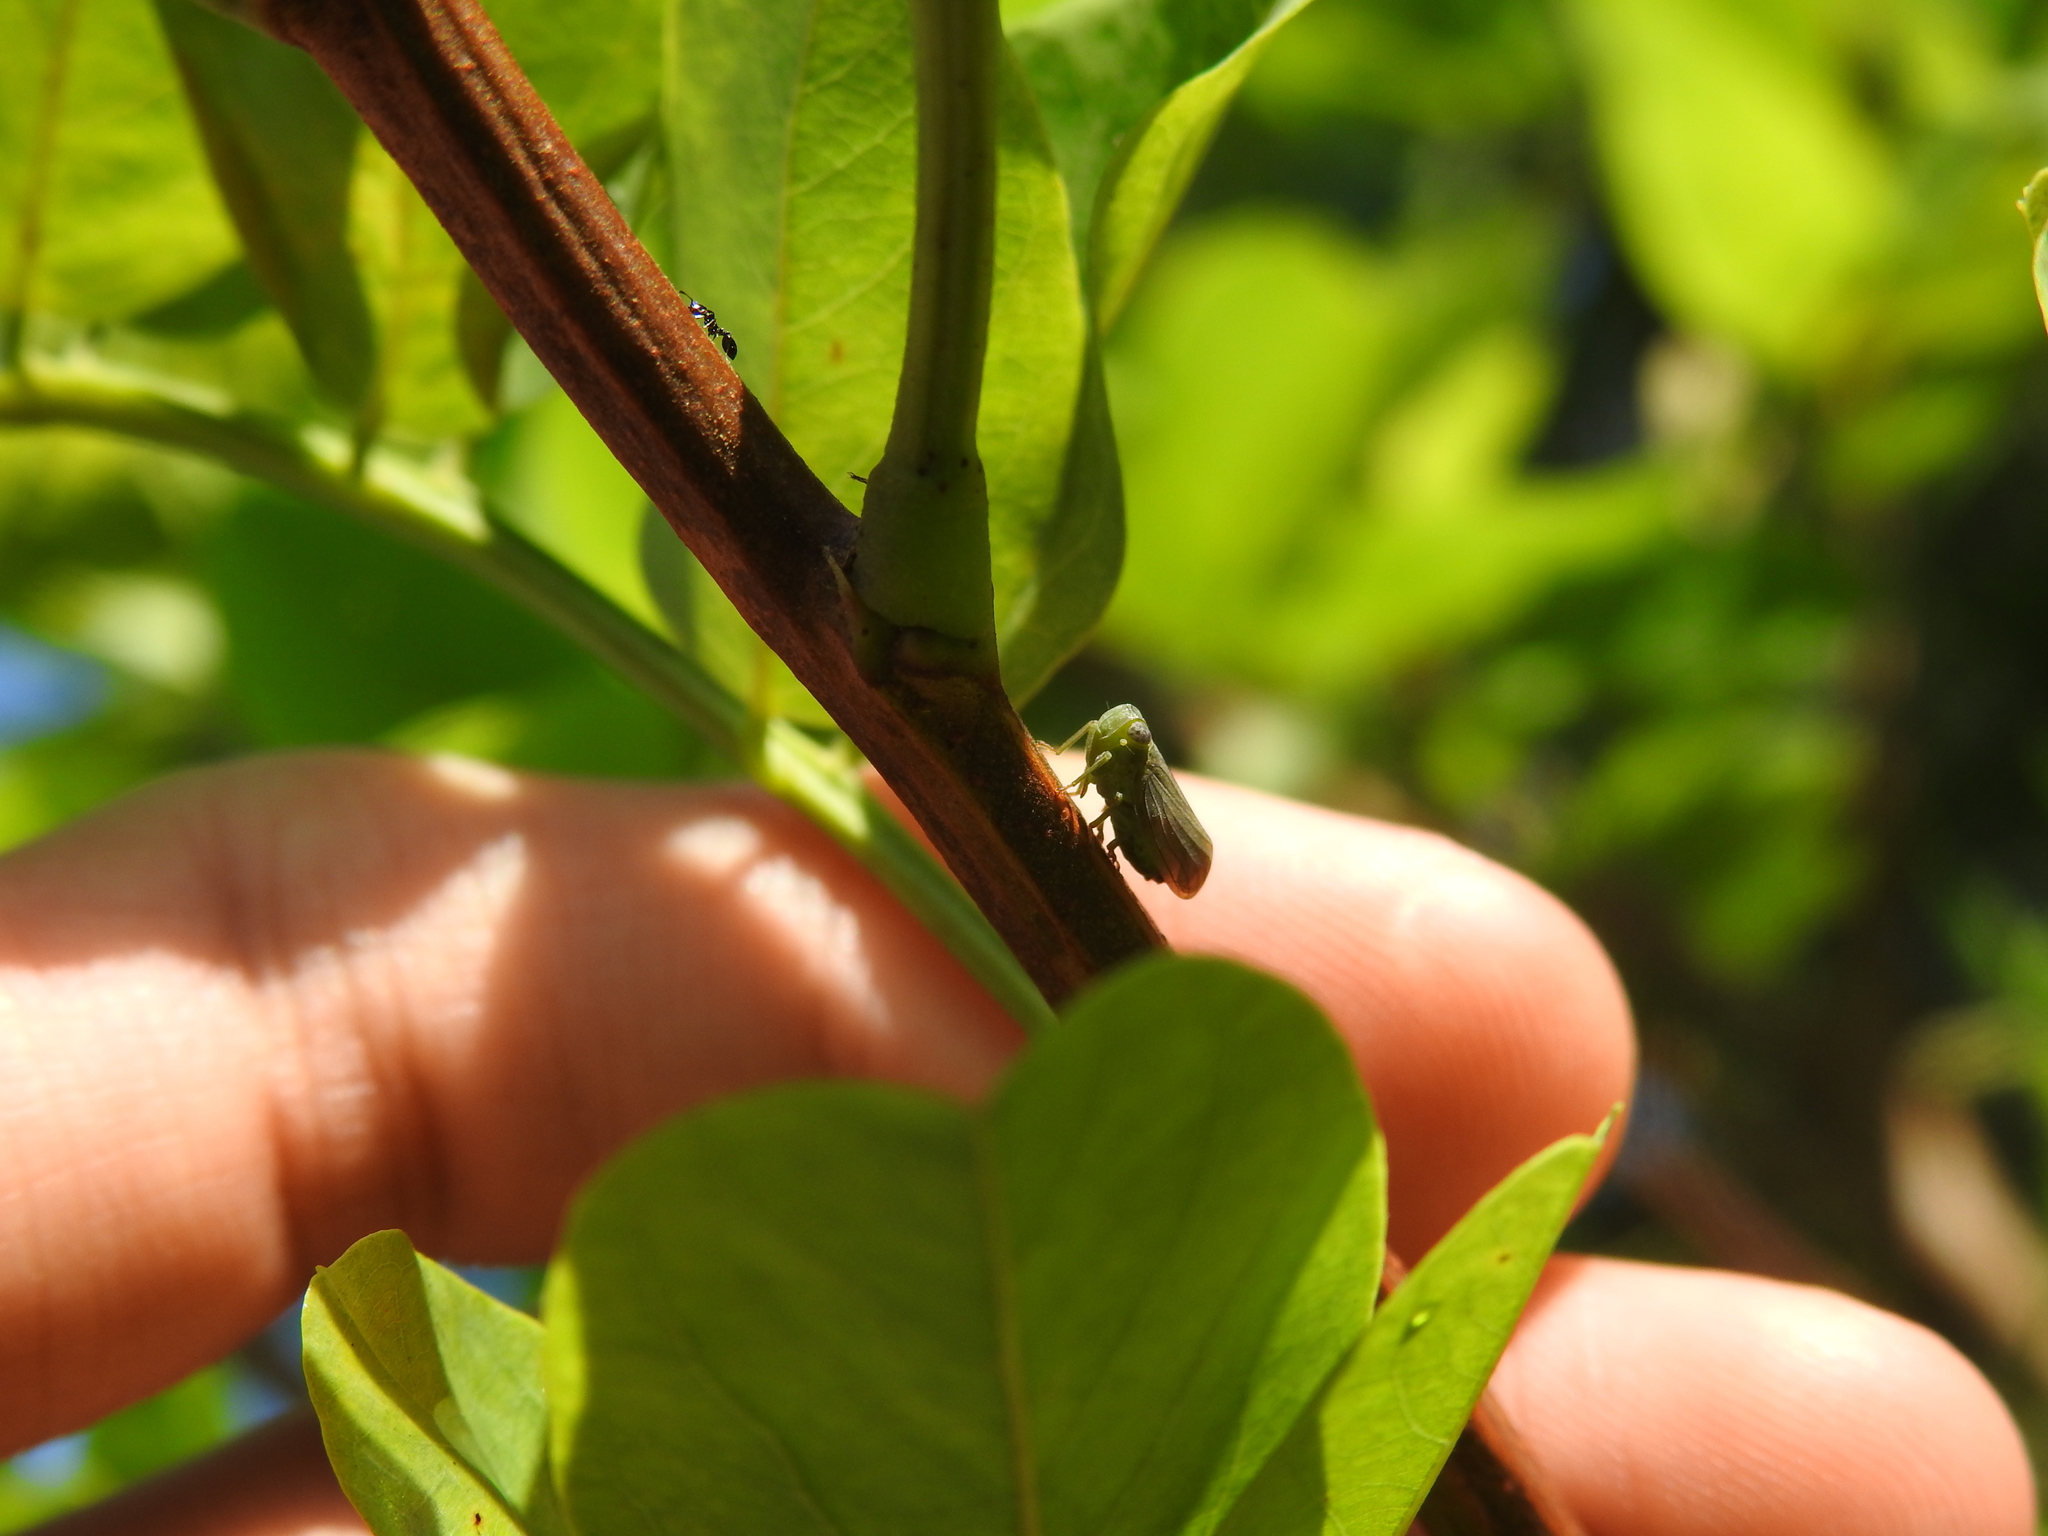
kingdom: Animalia
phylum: Arthropoda
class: Insecta
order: Hemiptera
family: Issidae
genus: Aplos
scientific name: Aplos simplex
